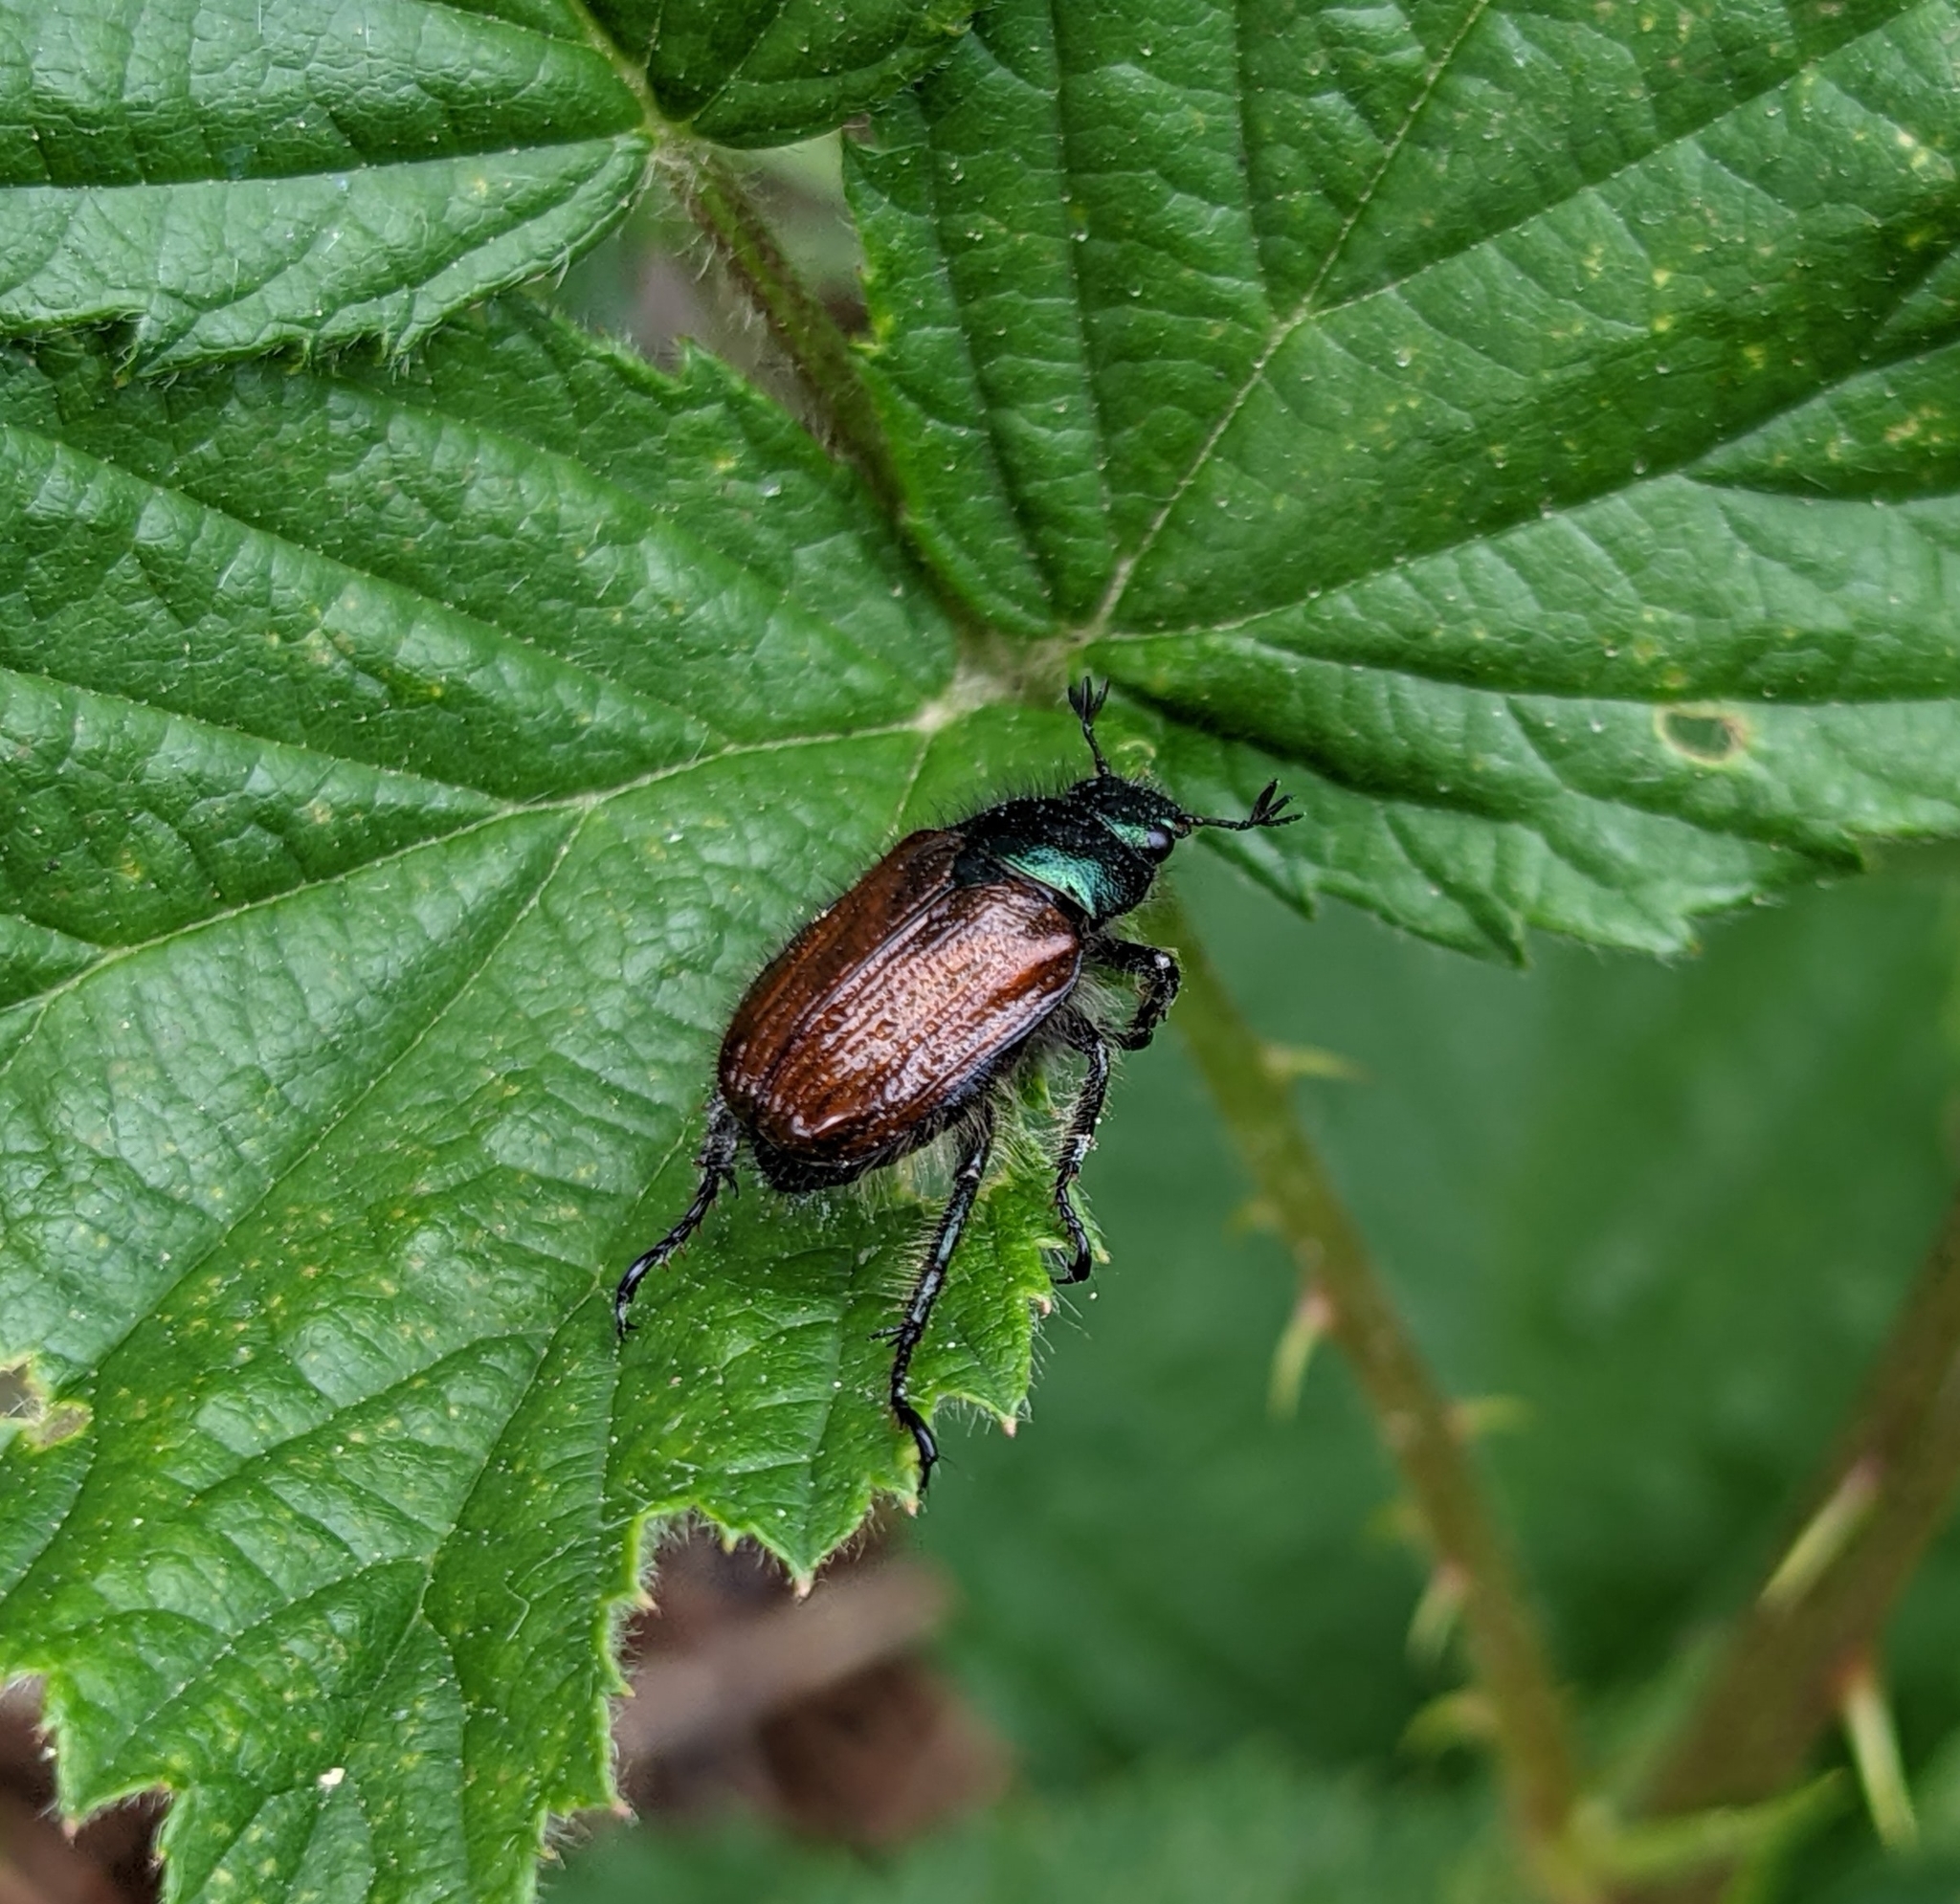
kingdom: Animalia
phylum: Arthropoda
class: Insecta
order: Coleoptera
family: Scarabaeidae
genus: Phyllopertha
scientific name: Phyllopertha horticola
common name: Garden chafer
